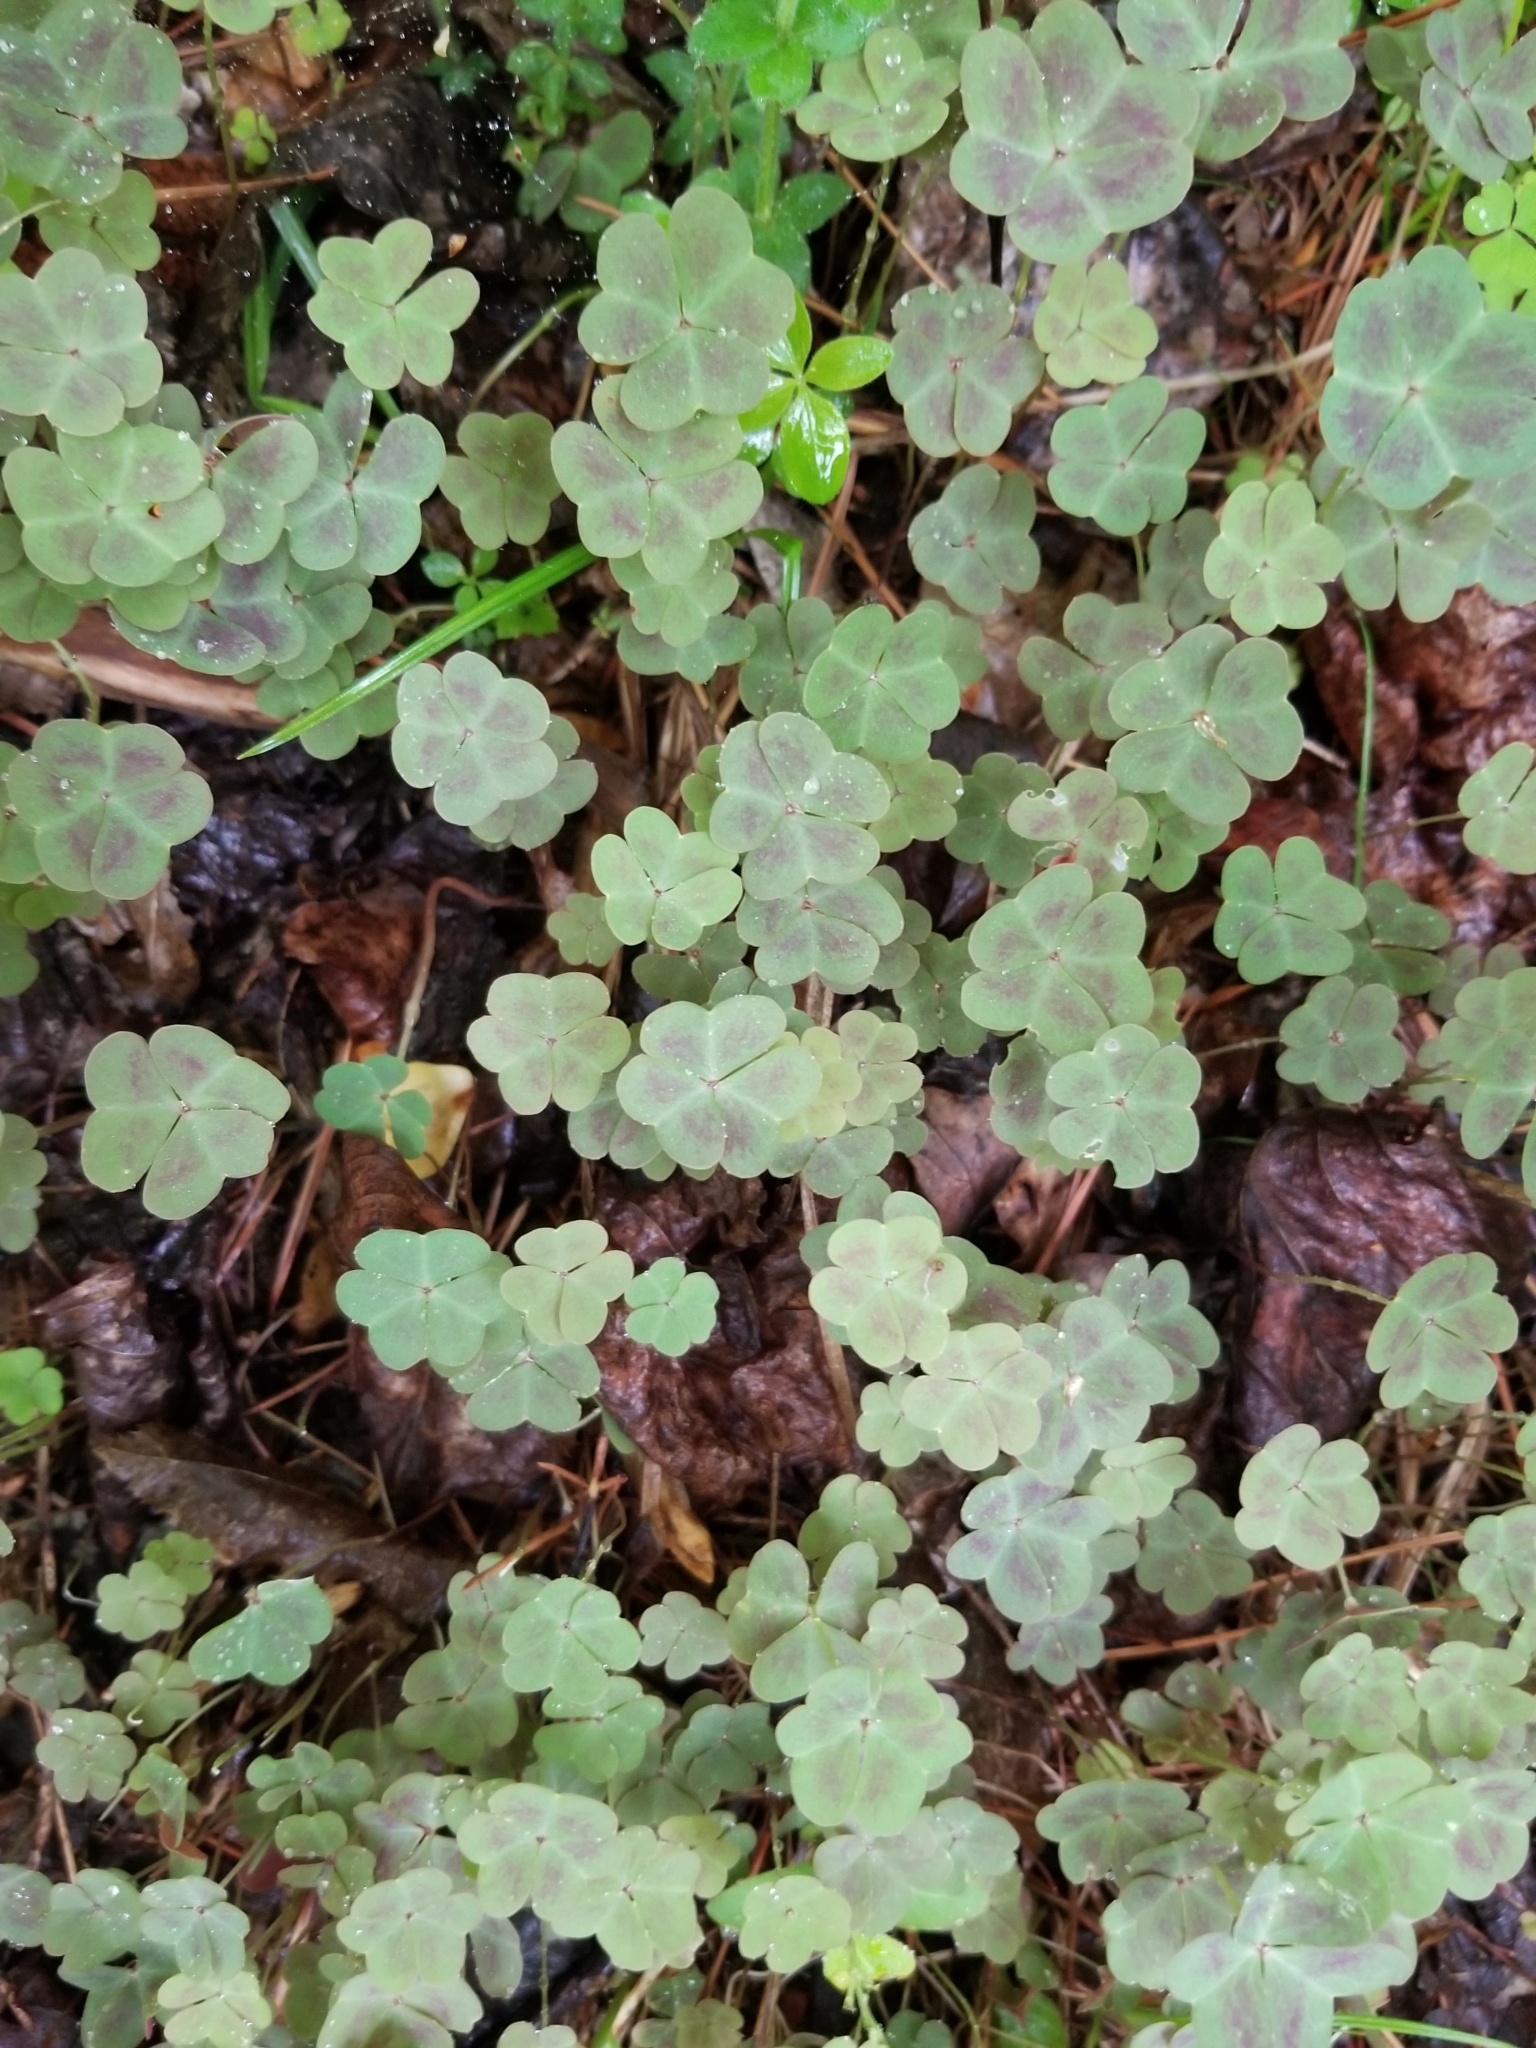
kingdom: Plantae
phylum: Tracheophyta
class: Magnoliopsida
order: Oxalidales
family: Oxalidaceae
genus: Oxalis
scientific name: Oxalis violacea
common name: Violet wood-sorrel
